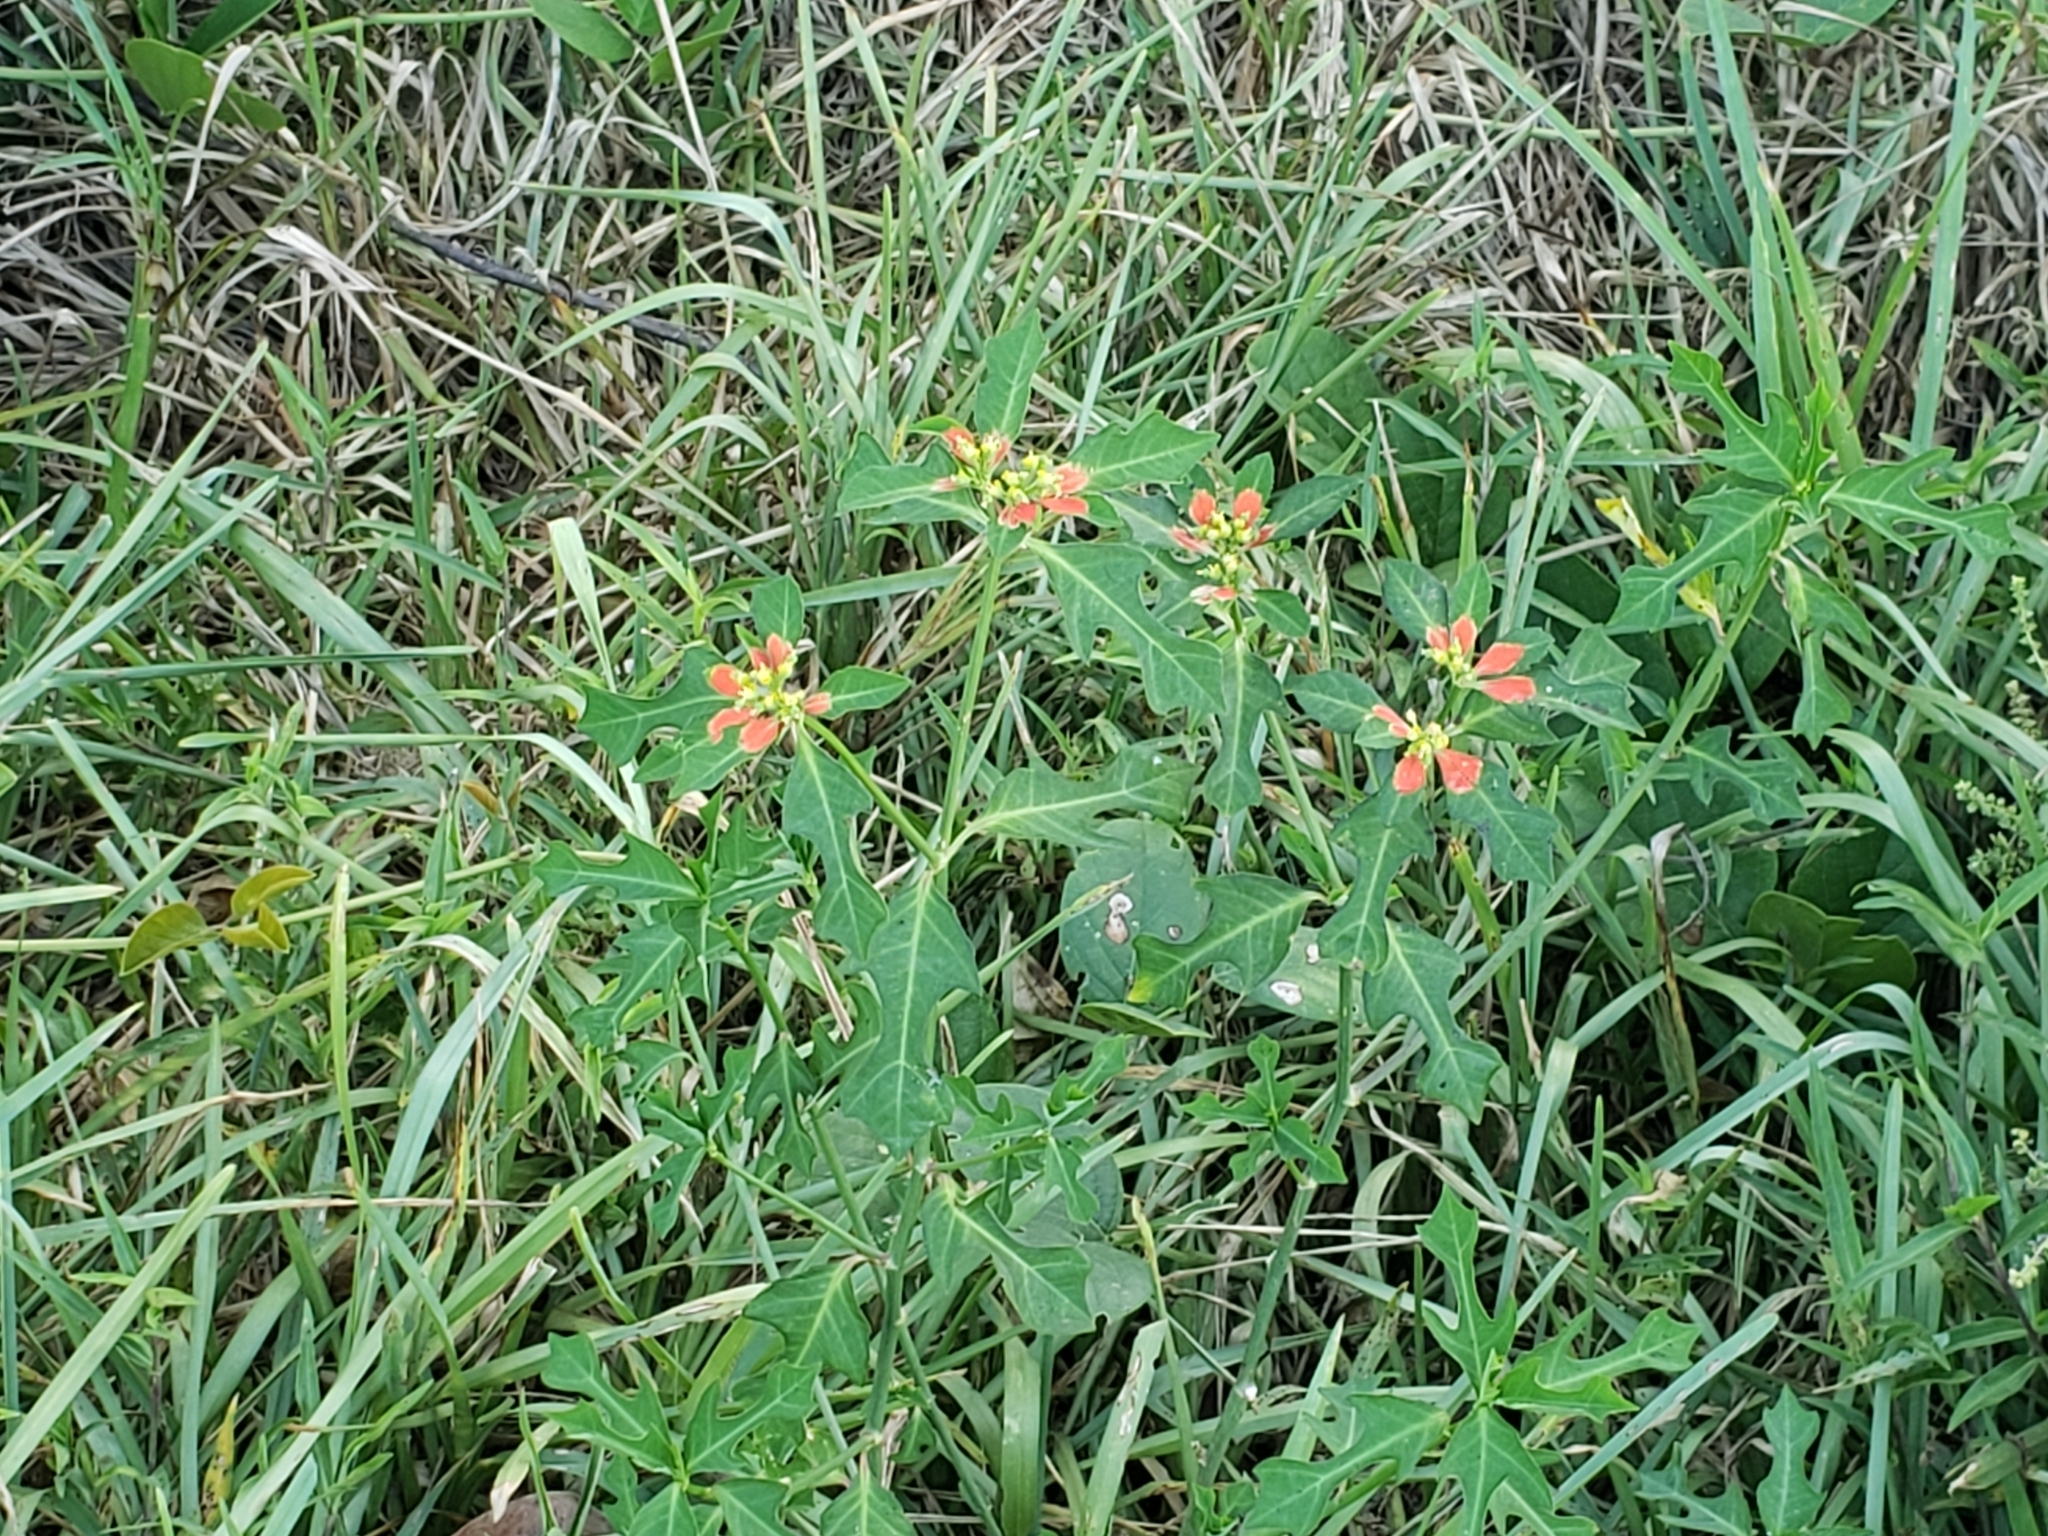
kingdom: Plantae
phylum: Tracheophyta
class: Magnoliopsida
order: Malpighiales
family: Euphorbiaceae
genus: Euphorbia
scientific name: Euphorbia heterophylla
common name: Mexican fireplant
